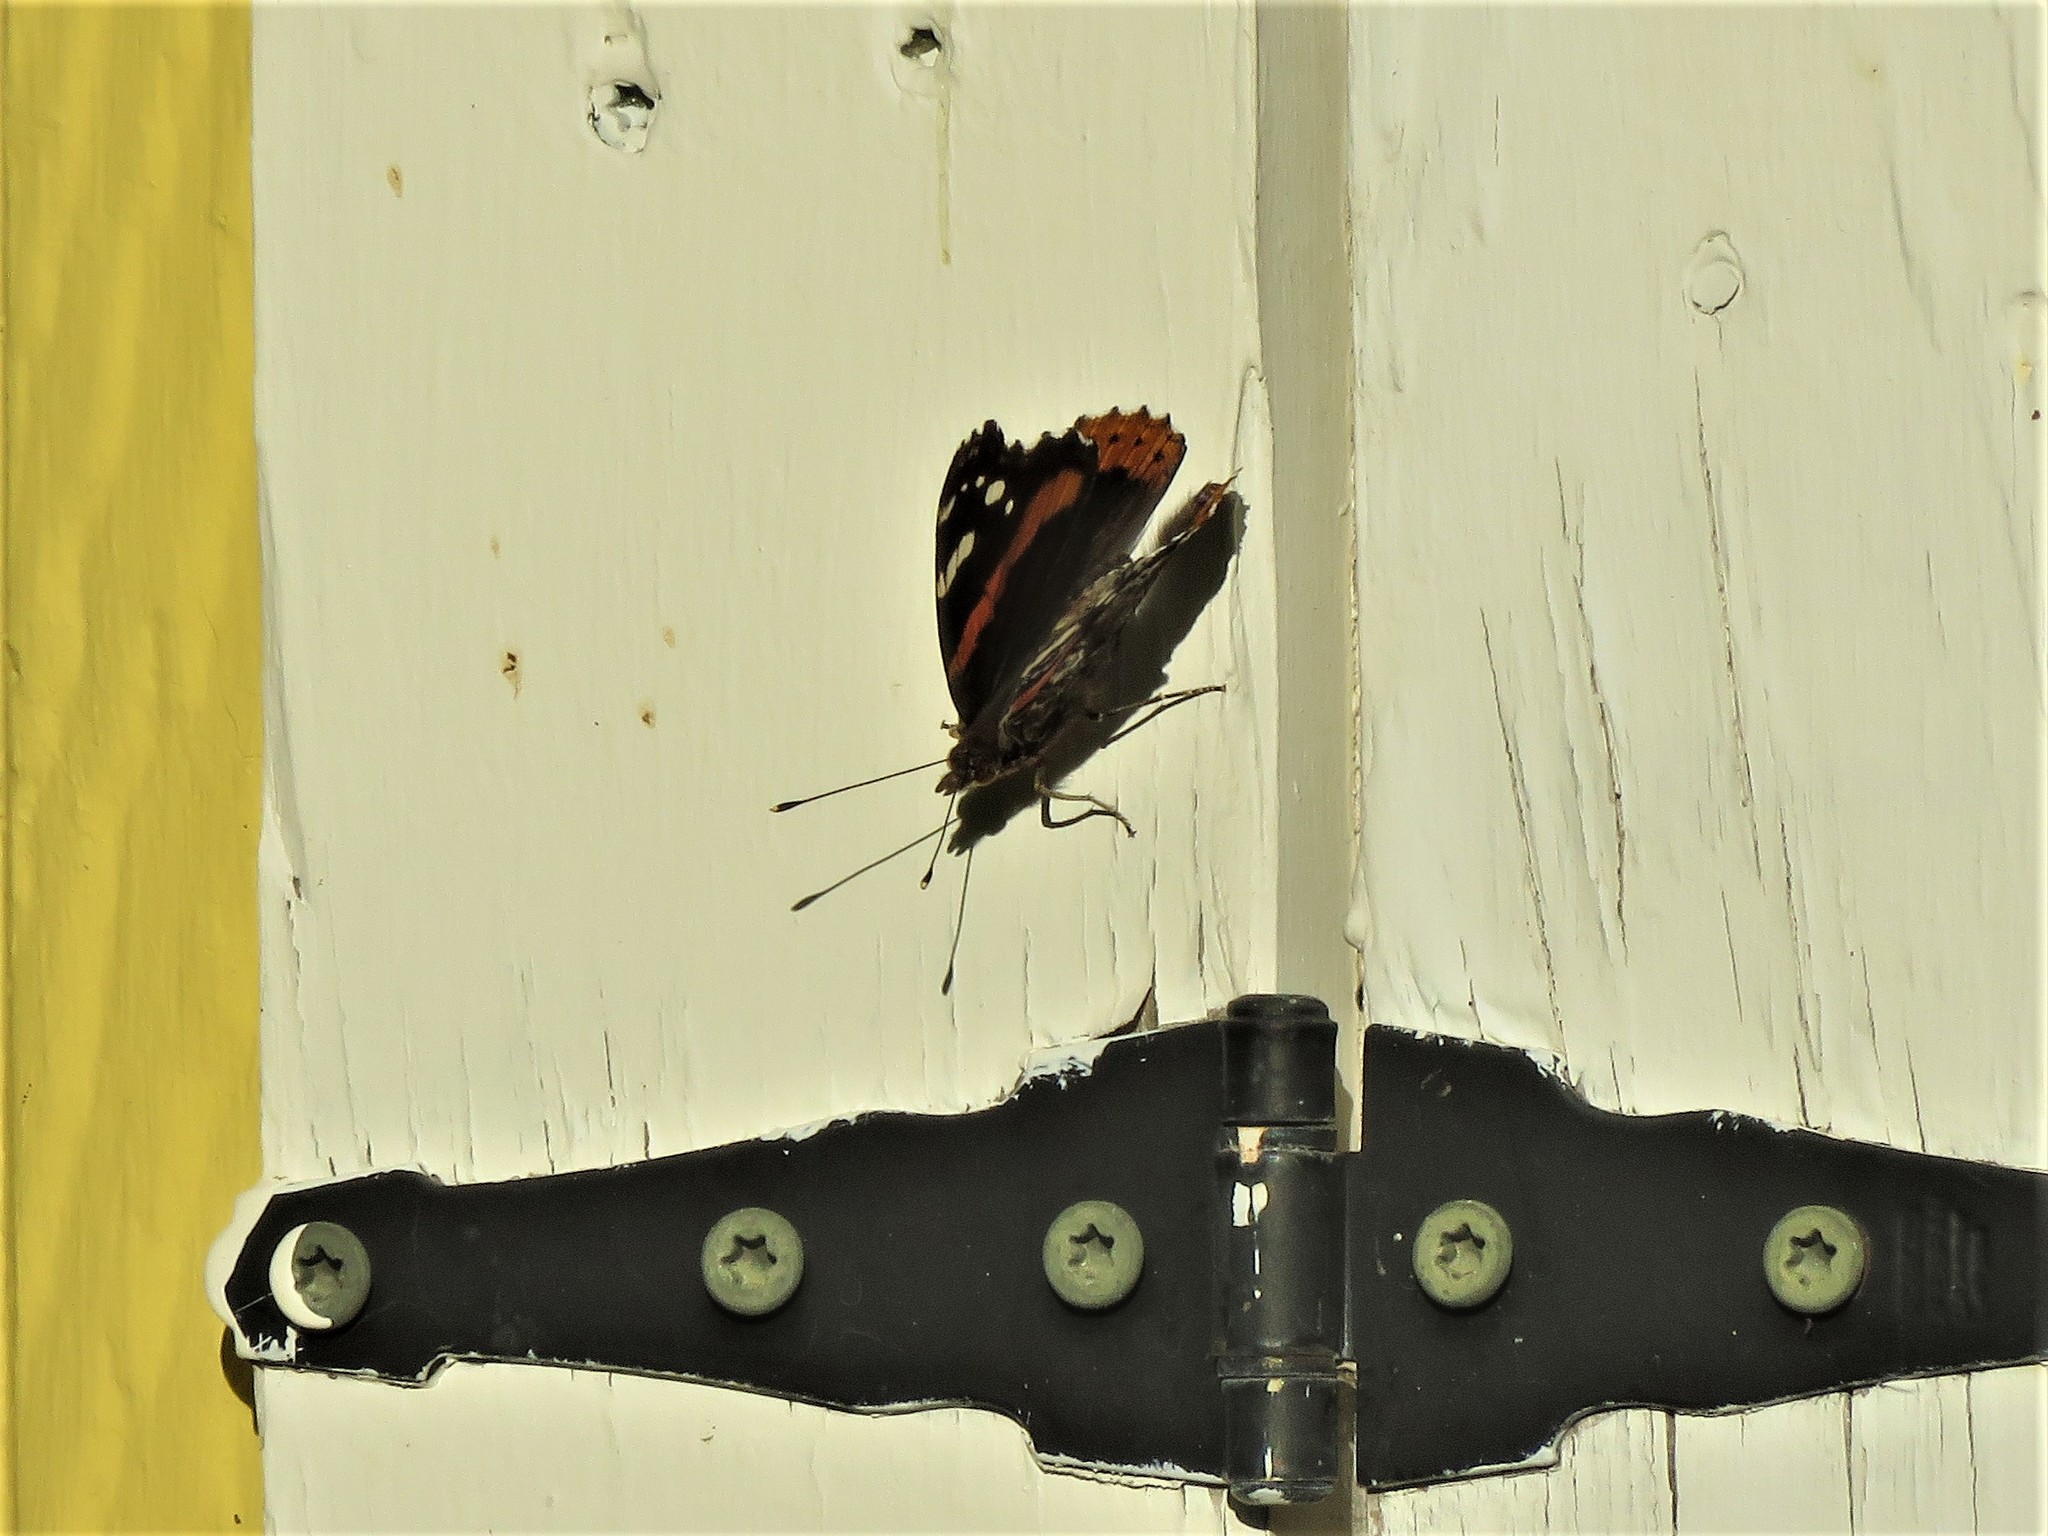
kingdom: Animalia
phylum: Arthropoda
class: Insecta
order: Lepidoptera
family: Nymphalidae
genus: Vanessa
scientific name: Vanessa atalanta
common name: Red admiral
